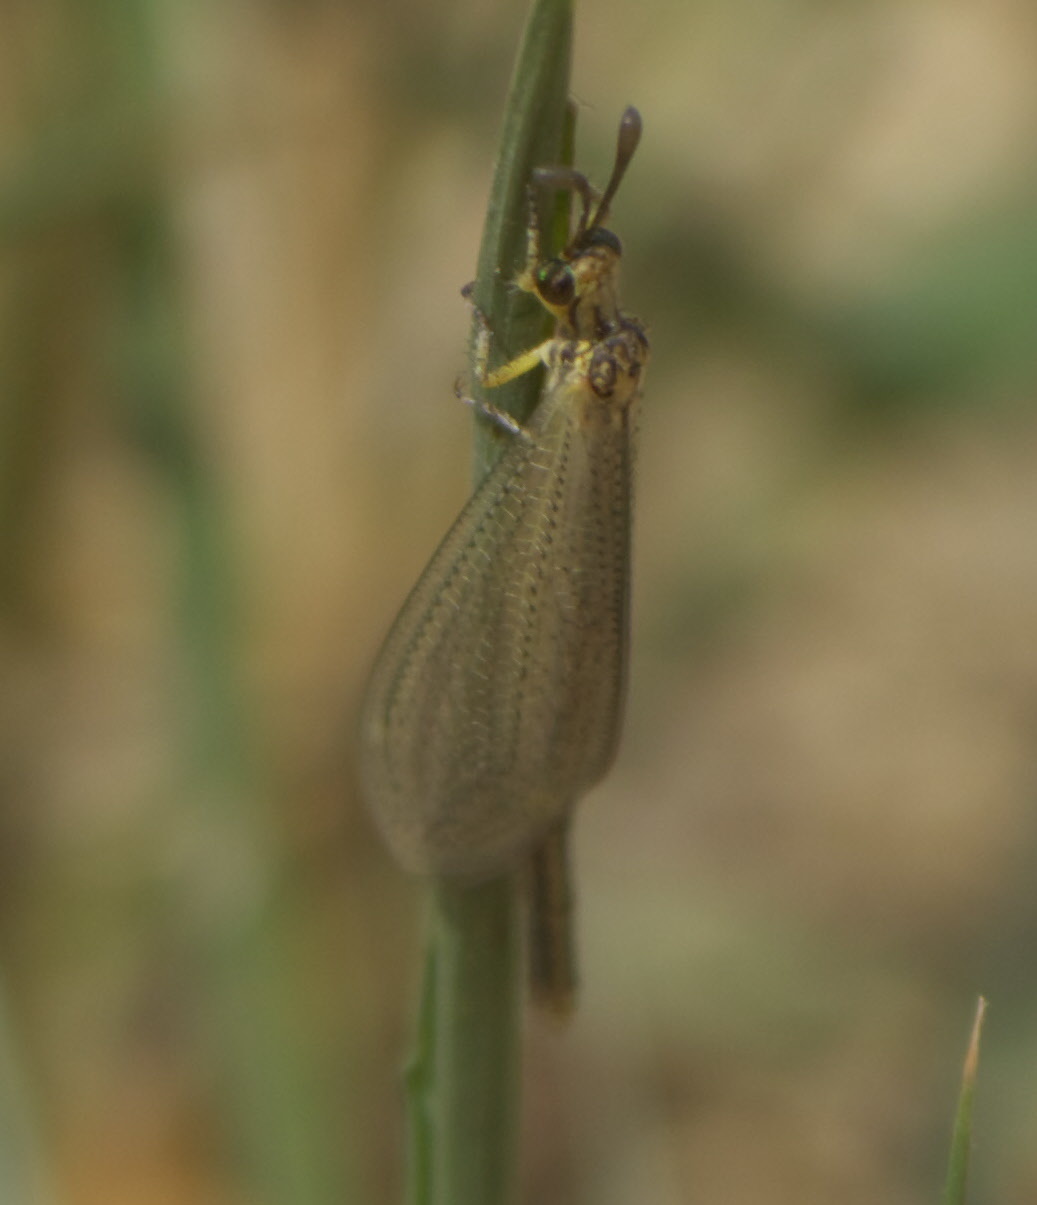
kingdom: Animalia
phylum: Arthropoda
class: Insecta
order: Neuroptera
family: Myrmeleontidae
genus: Brachynemurus
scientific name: Brachynemurus abdominalis
